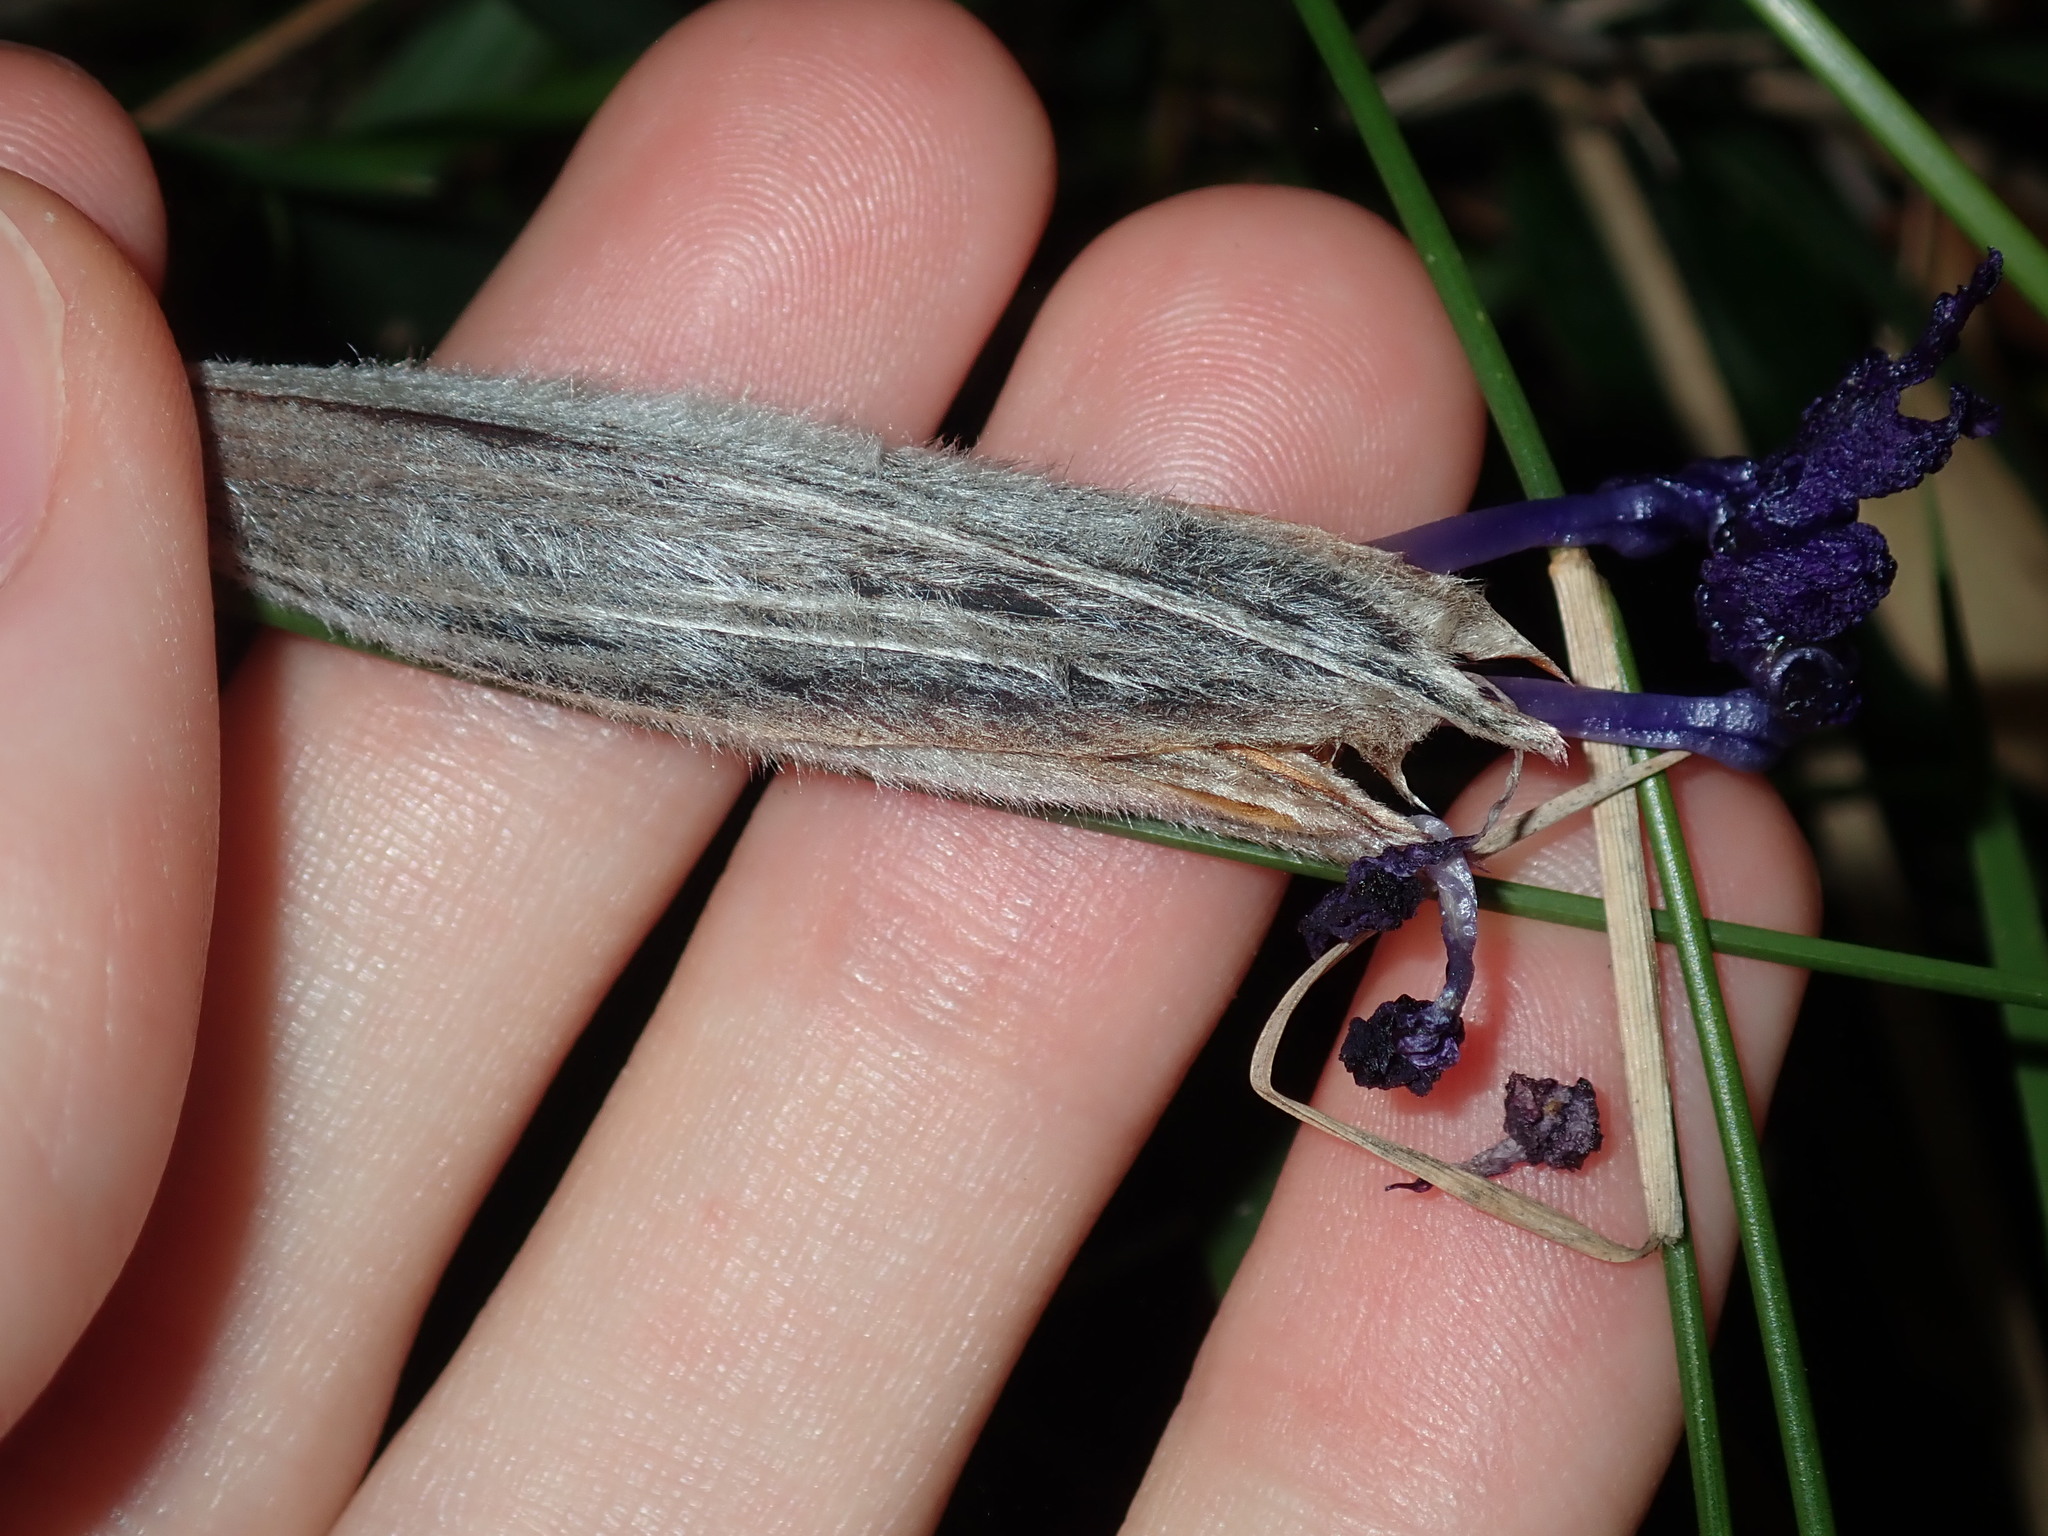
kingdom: Plantae
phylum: Tracheophyta
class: Liliopsida
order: Asparagales
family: Iridaceae
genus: Patersonia
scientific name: Patersonia sericea
